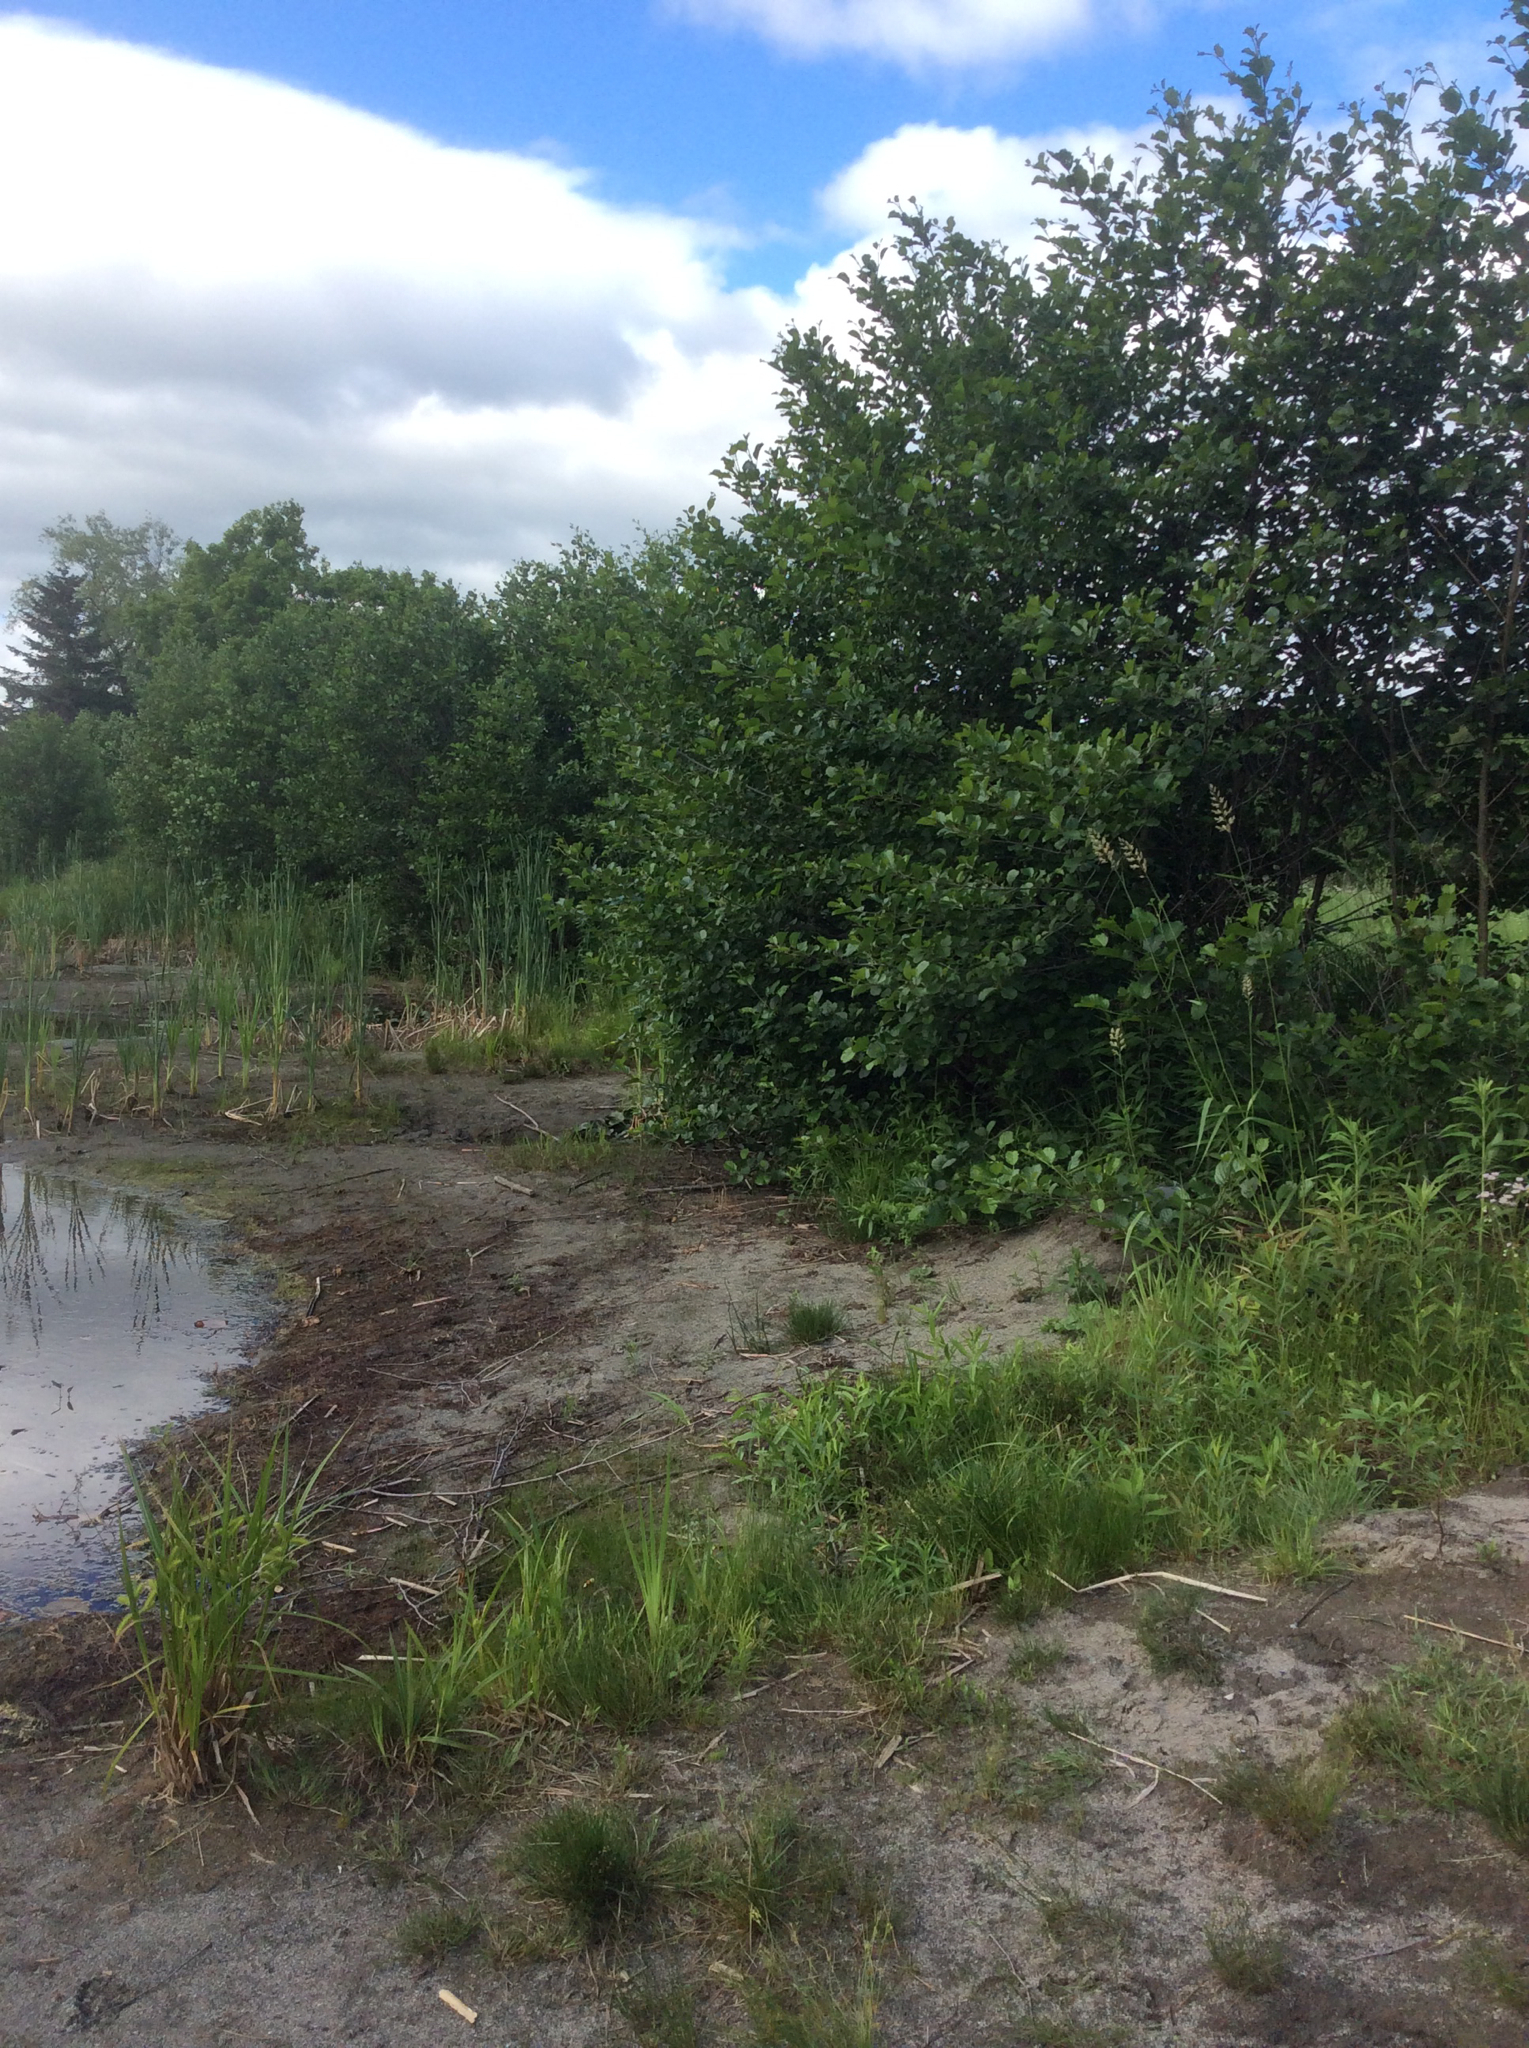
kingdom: Plantae
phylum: Tracheophyta
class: Magnoliopsida
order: Fagales
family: Betulaceae
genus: Alnus
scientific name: Alnus glutinosa
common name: Black alder
